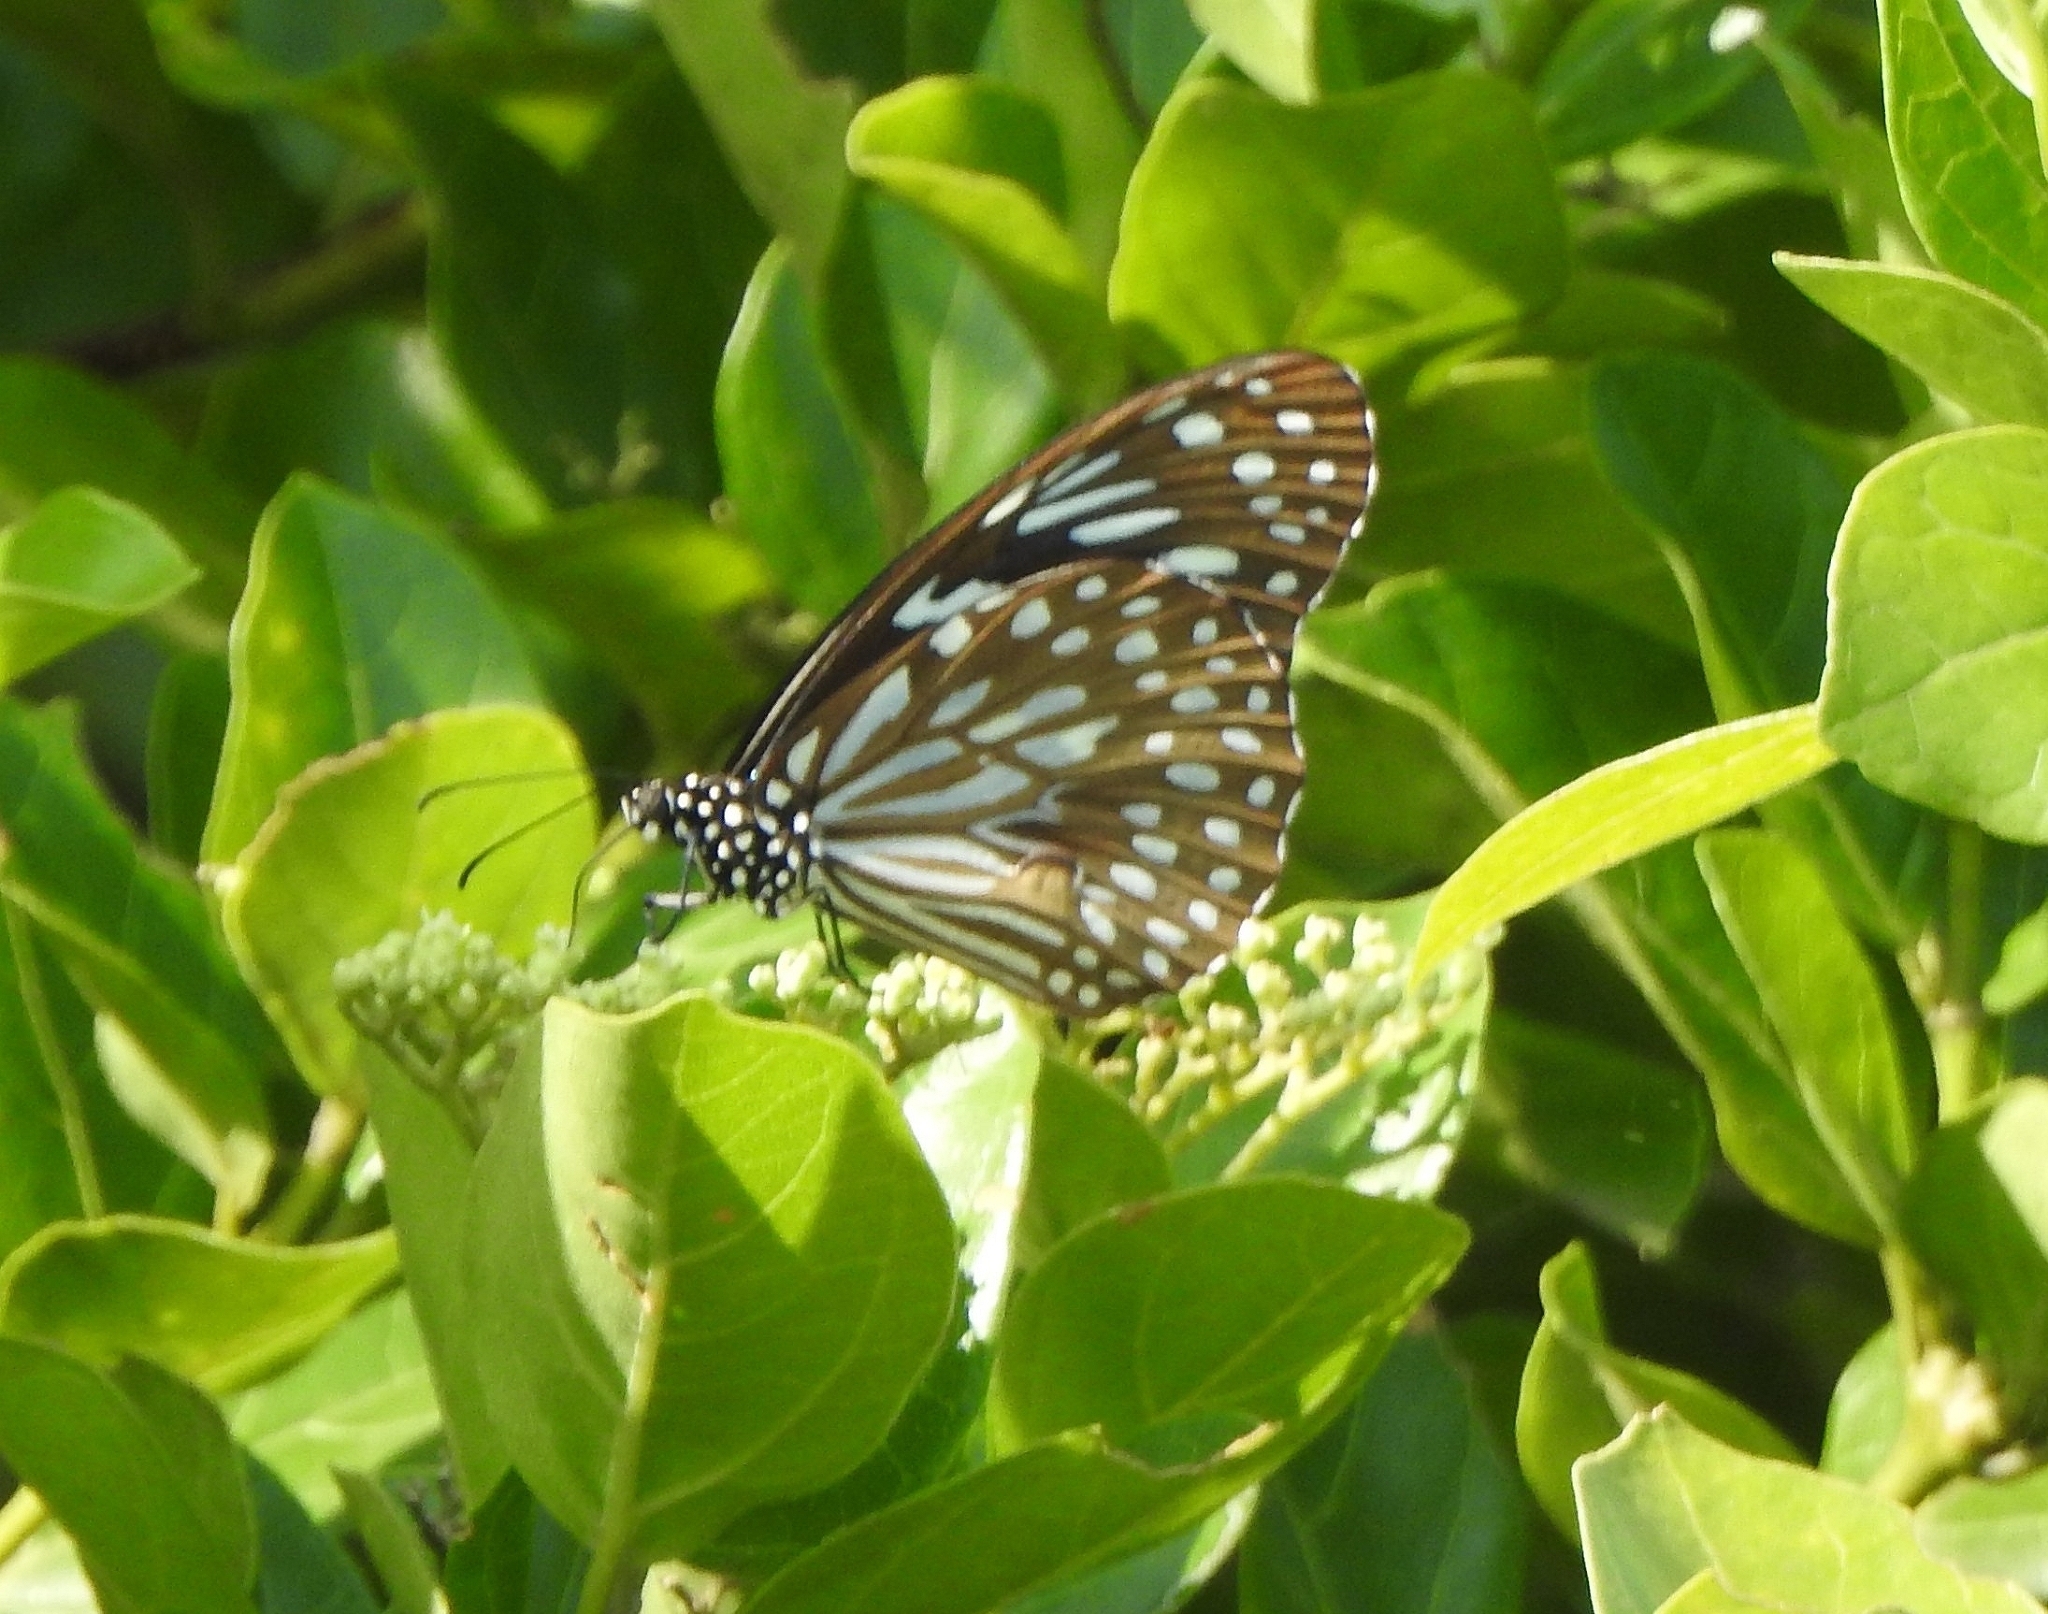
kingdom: Animalia
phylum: Arthropoda
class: Insecta
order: Lepidoptera
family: Nymphalidae
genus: Tirumala
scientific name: Tirumala septentrionis
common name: Dark blue tiger butterfly
